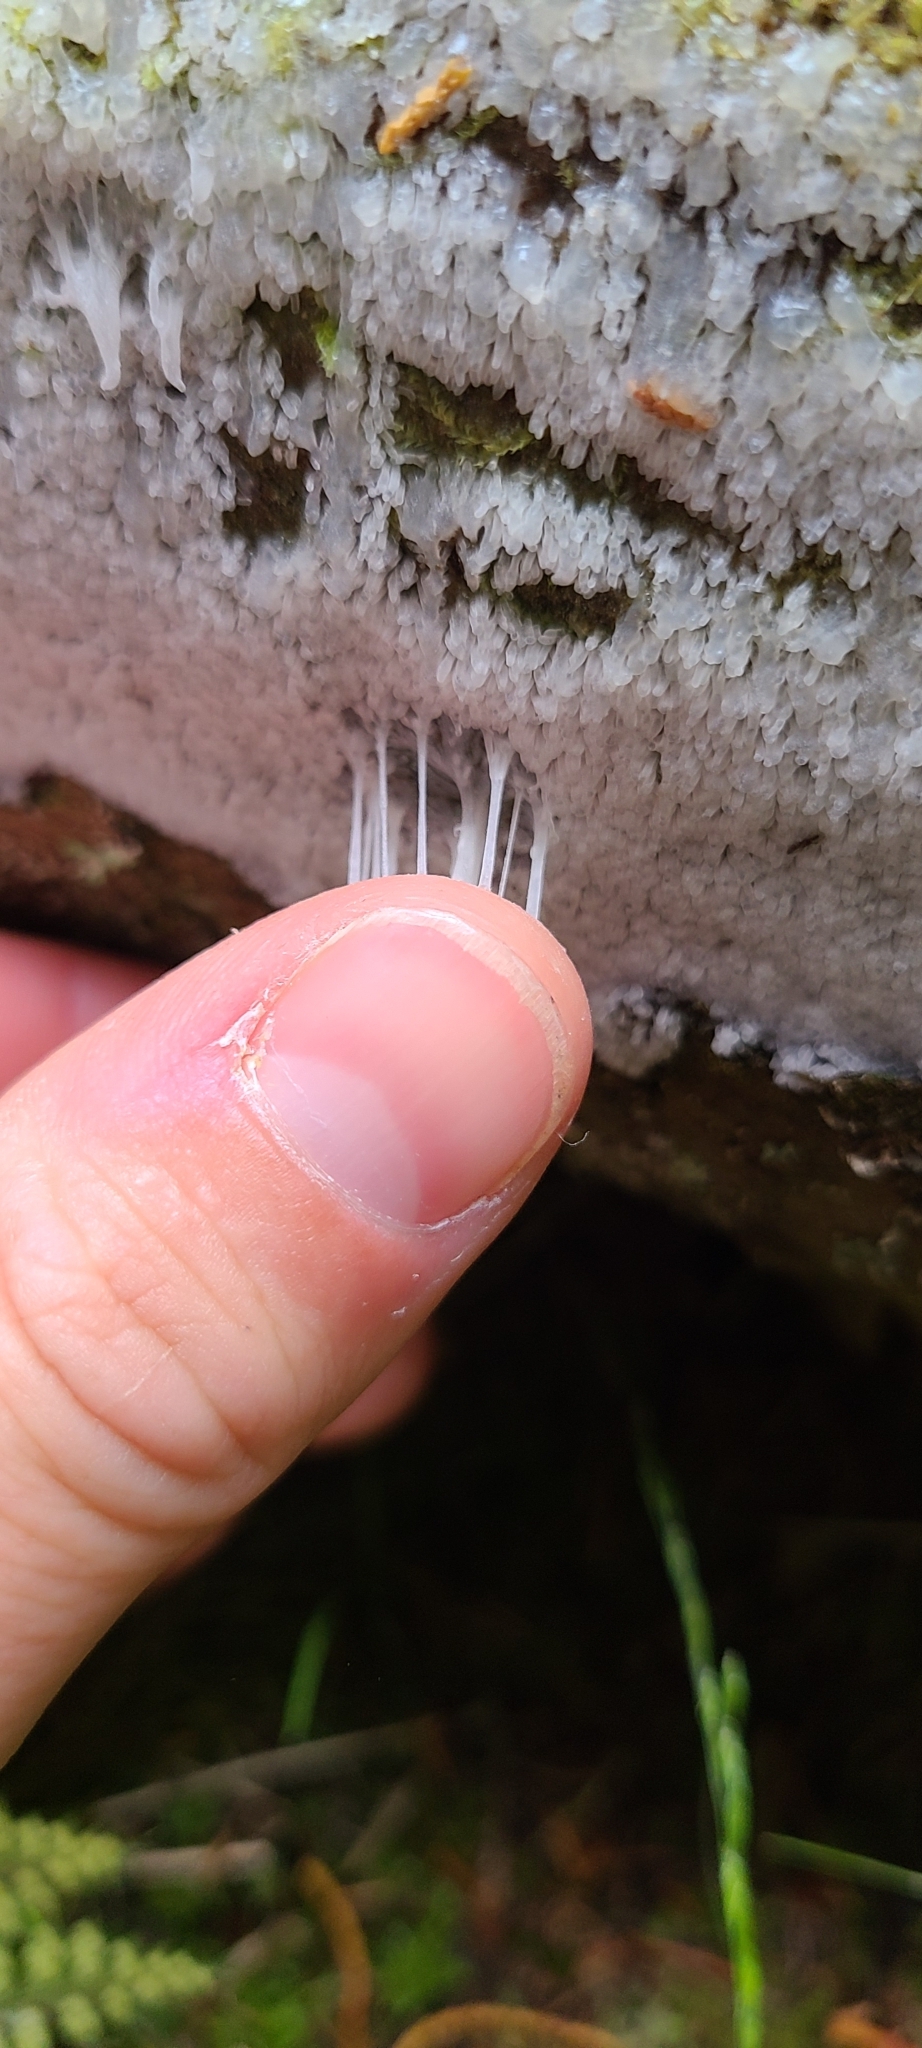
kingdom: Protozoa
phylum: Mycetozoa
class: Protosteliomycetes
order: Ceratiomyxales
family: Ceratiomyxaceae
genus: Ceratiomyxa
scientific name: Ceratiomyxa fruticulosa
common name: Honeycomb coral slime mold
